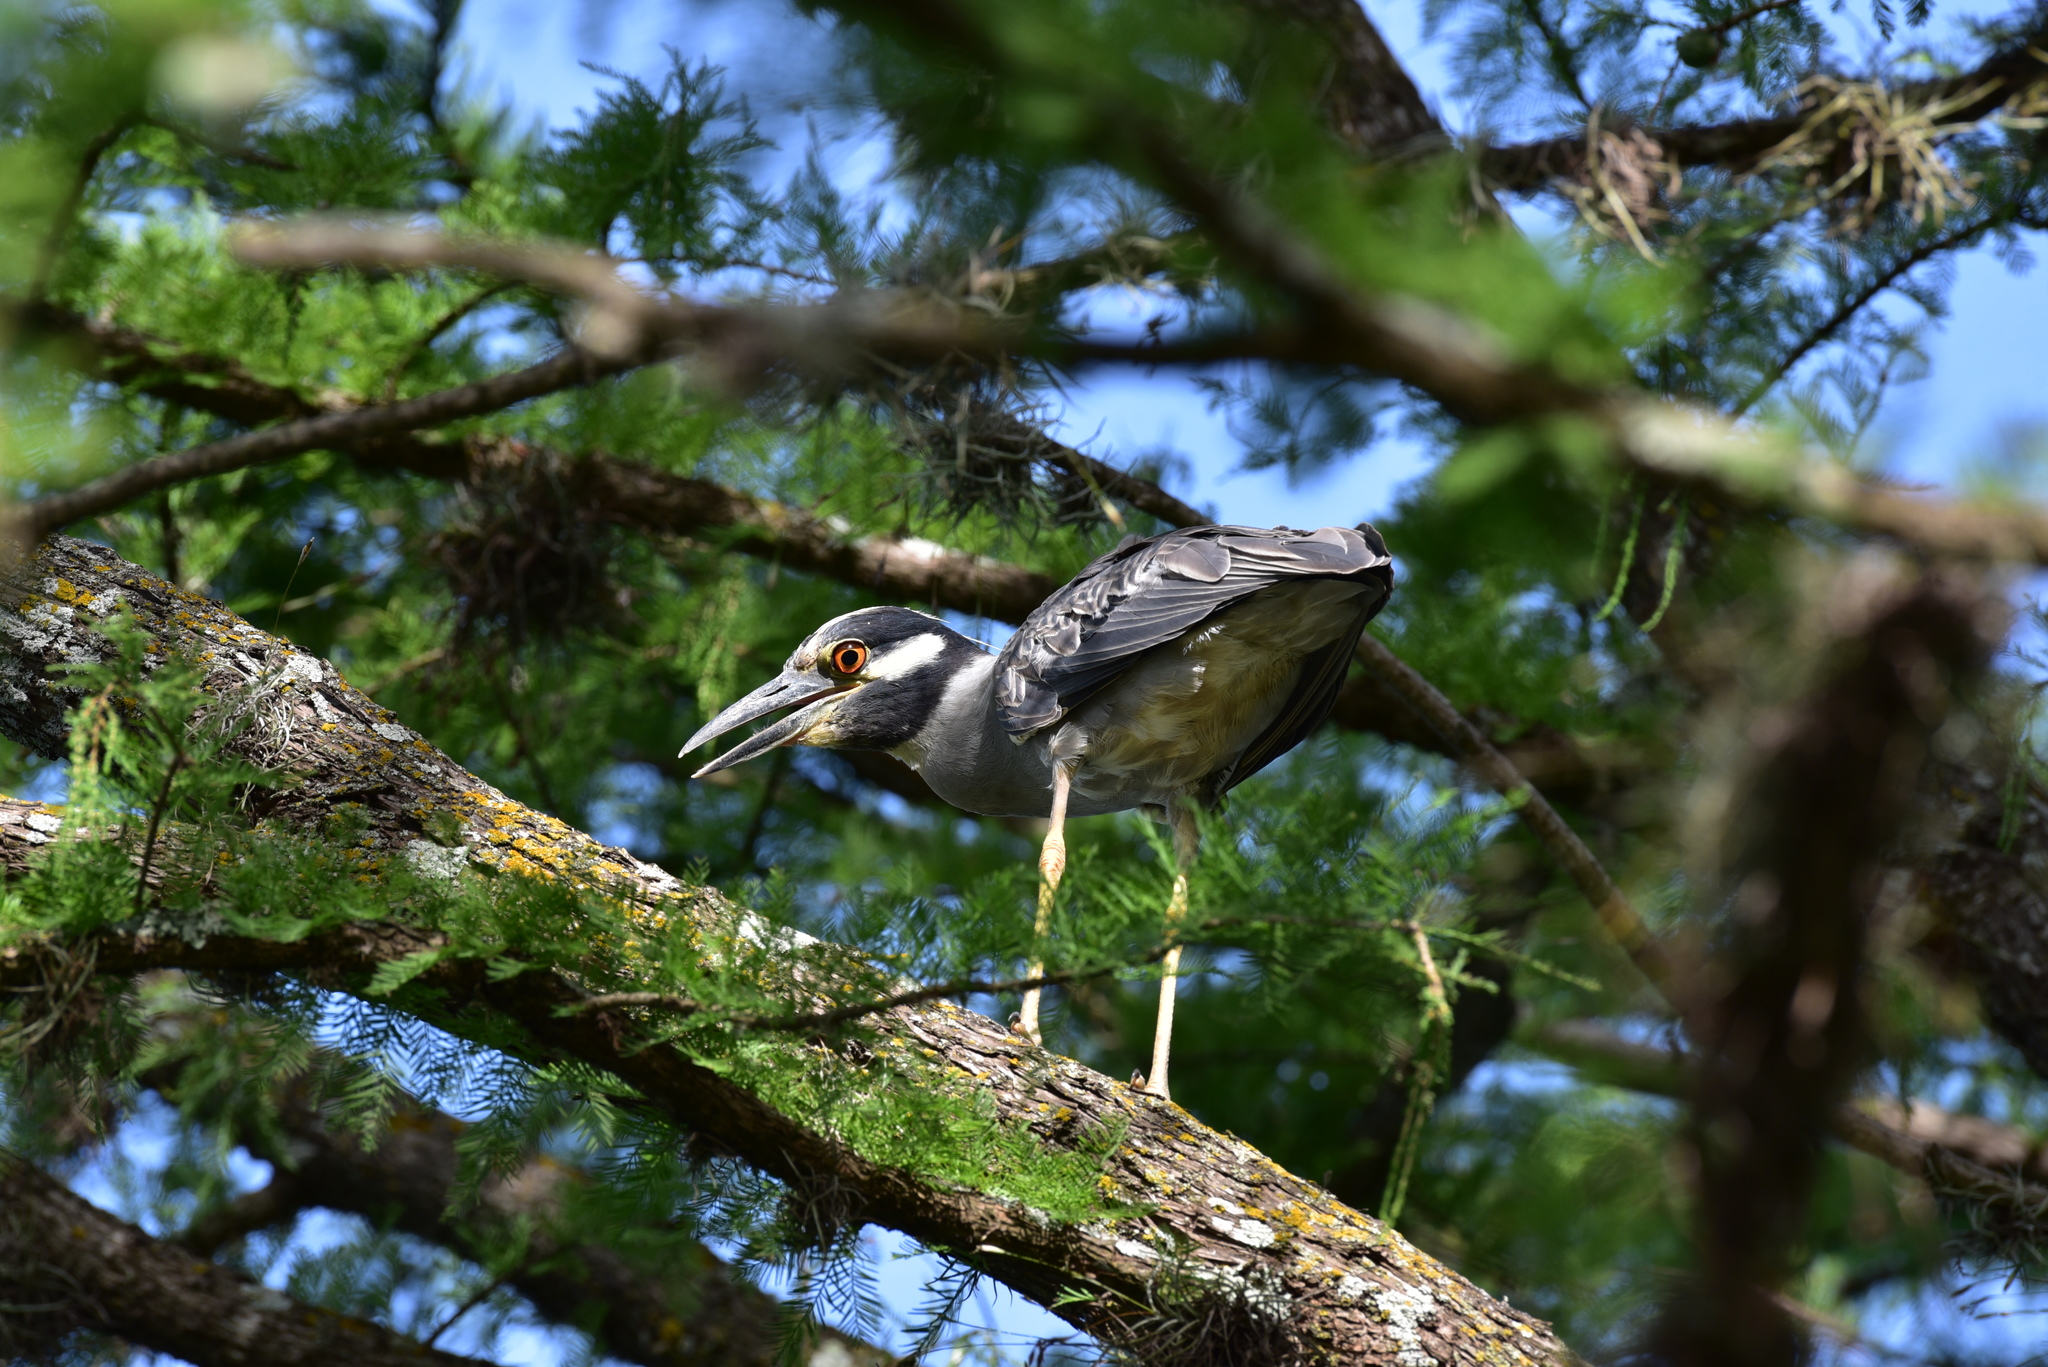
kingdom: Animalia
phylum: Chordata
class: Aves
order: Pelecaniformes
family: Ardeidae
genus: Nyctanassa
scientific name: Nyctanassa violacea
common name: Yellow-crowned night heron
